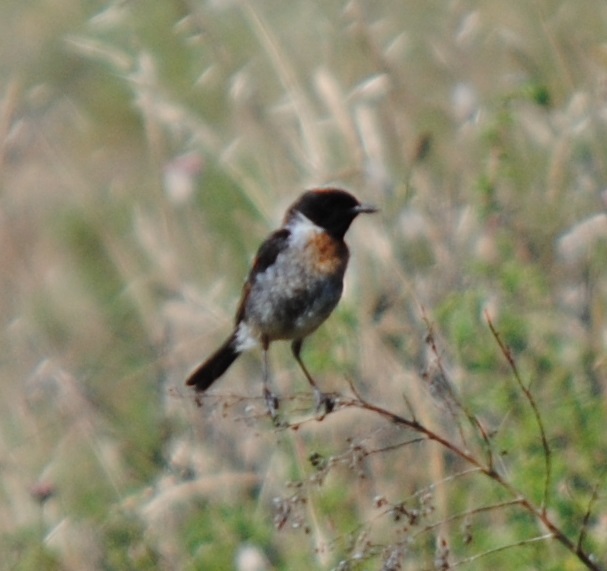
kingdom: Animalia
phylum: Chordata
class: Aves
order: Passeriformes
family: Muscicapidae
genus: Saxicola
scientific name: Saxicola rubicola
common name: European stonechat
